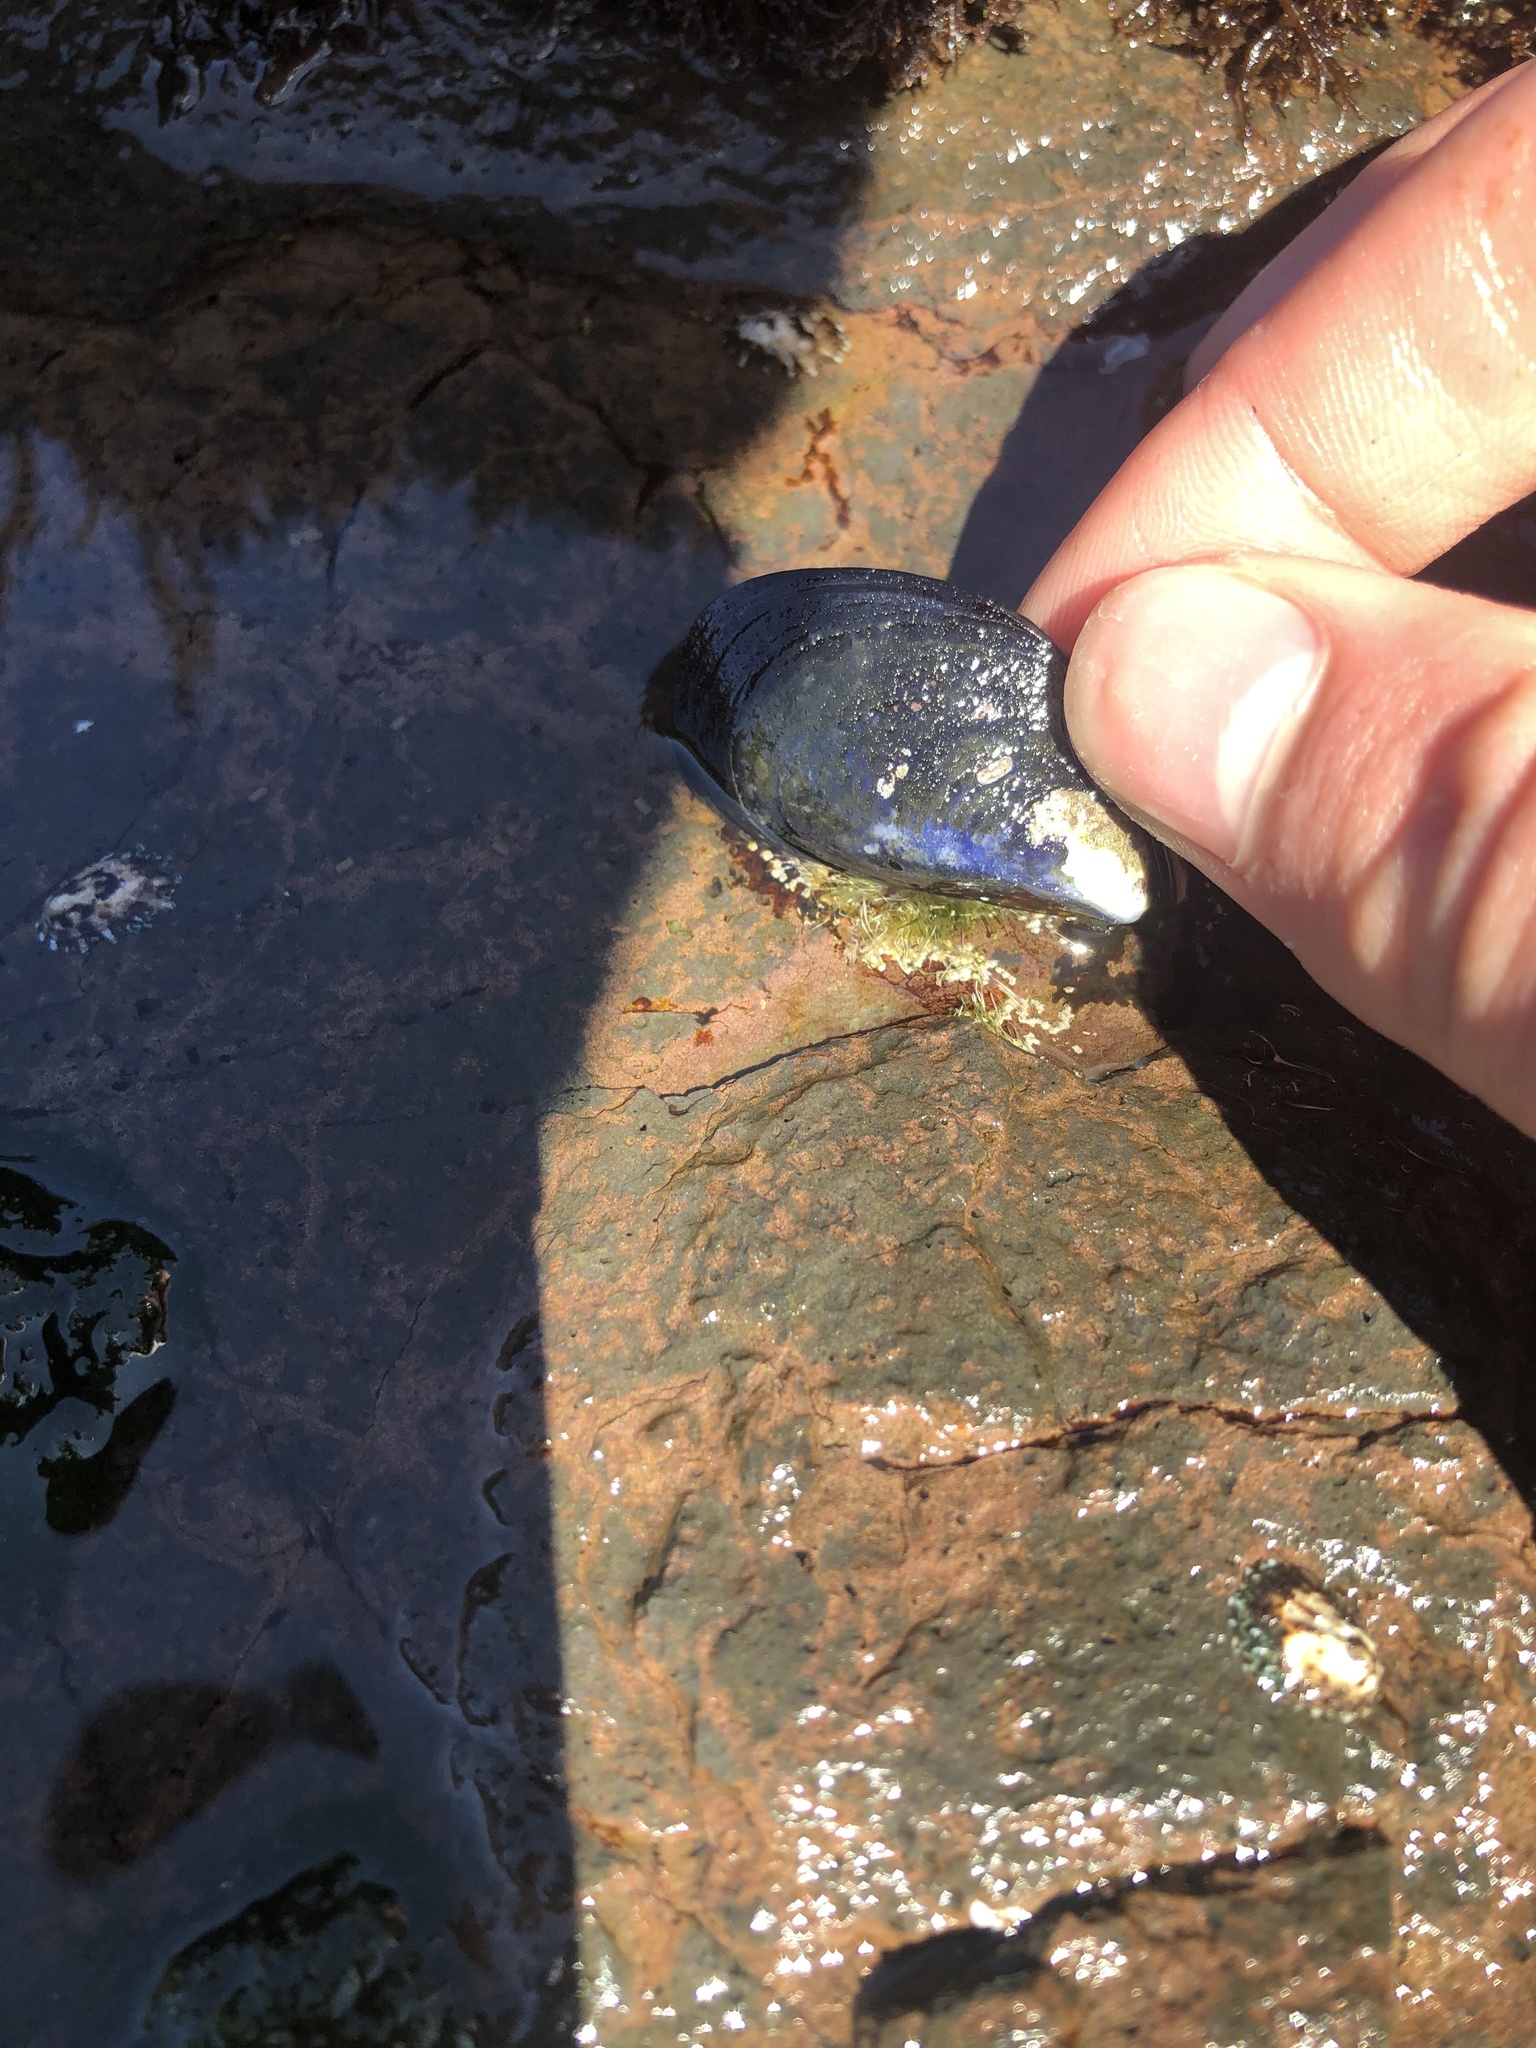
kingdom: Animalia
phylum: Mollusca
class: Bivalvia
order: Mytilida
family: Mytilidae
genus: Mytilus
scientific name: Mytilus
